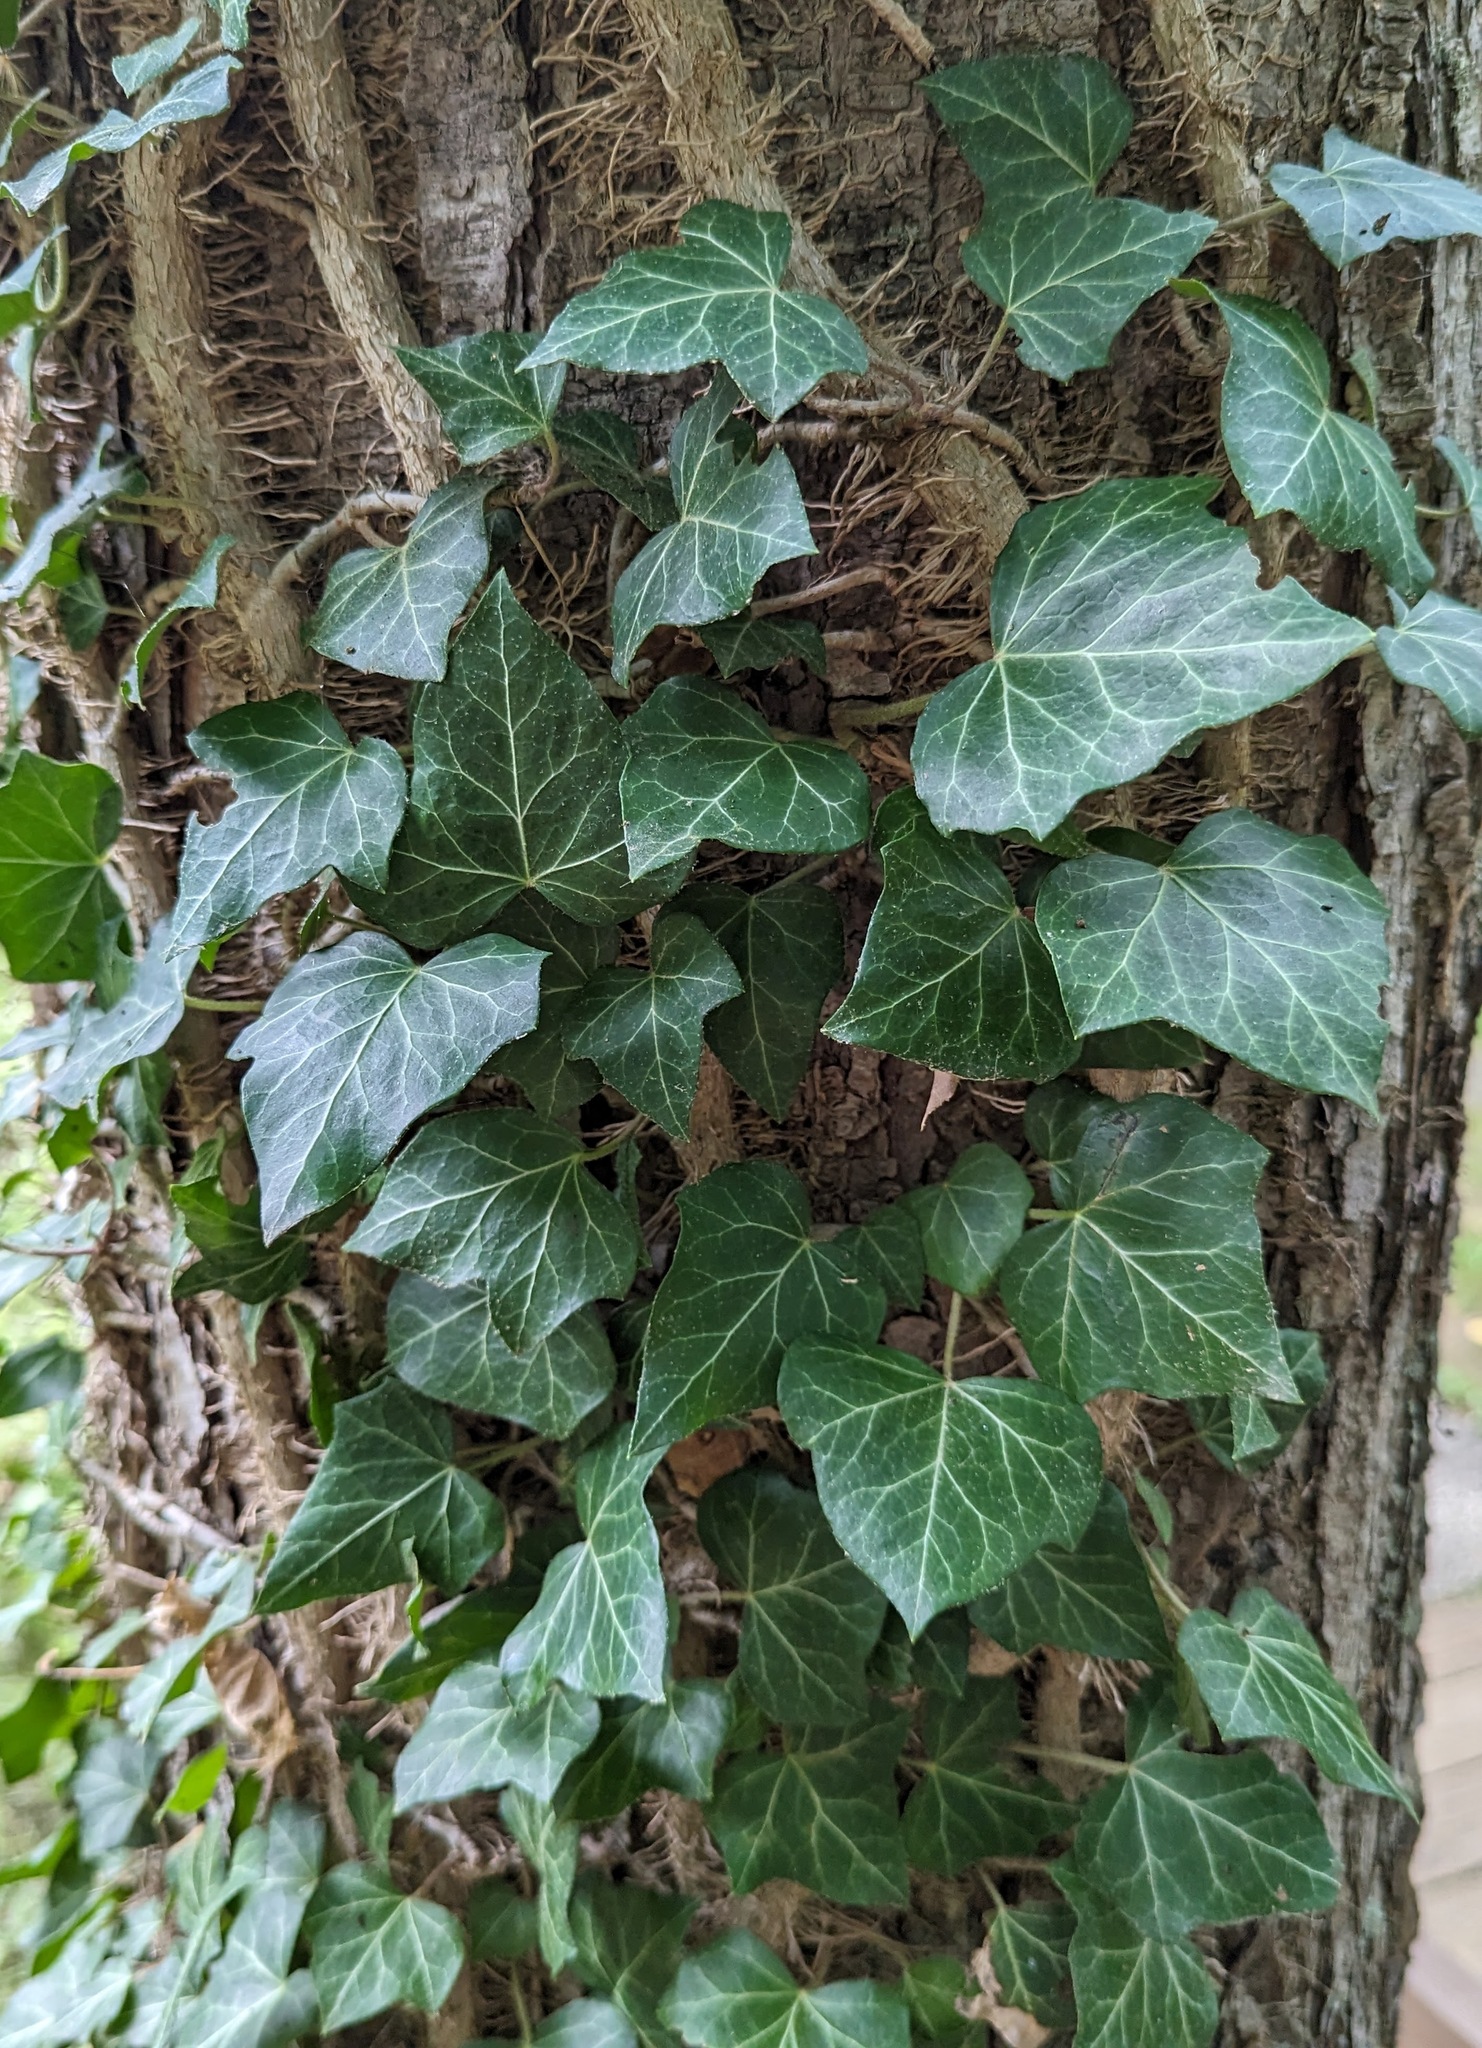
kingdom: Plantae
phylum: Tracheophyta
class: Magnoliopsida
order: Apiales
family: Araliaceae
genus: Hedera
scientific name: Hedera helix
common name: Ivy
